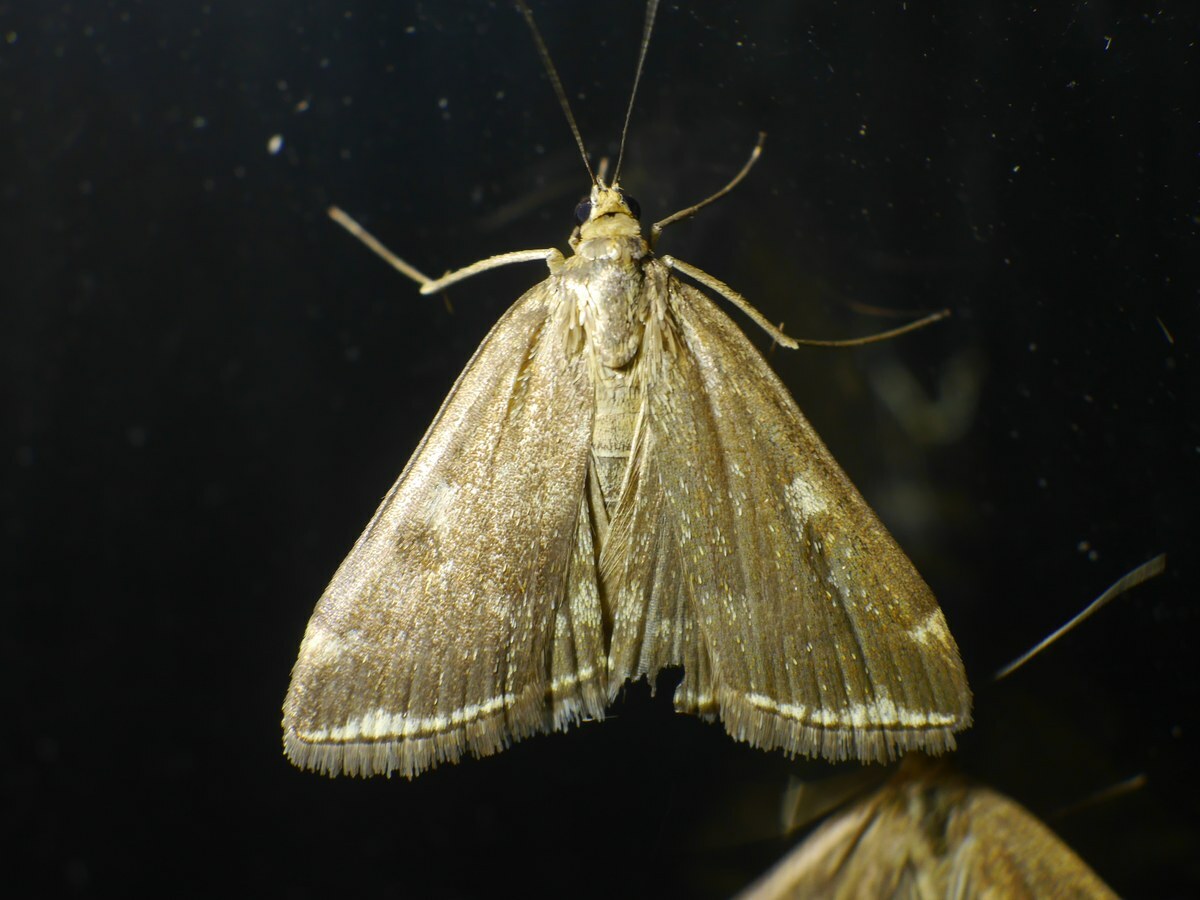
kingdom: Animalia
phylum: Arthropoda
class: Insecta
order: Lepidoptera
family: Crambidae
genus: Loxostege
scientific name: Loxostege sticticalis
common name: Crambid moth
